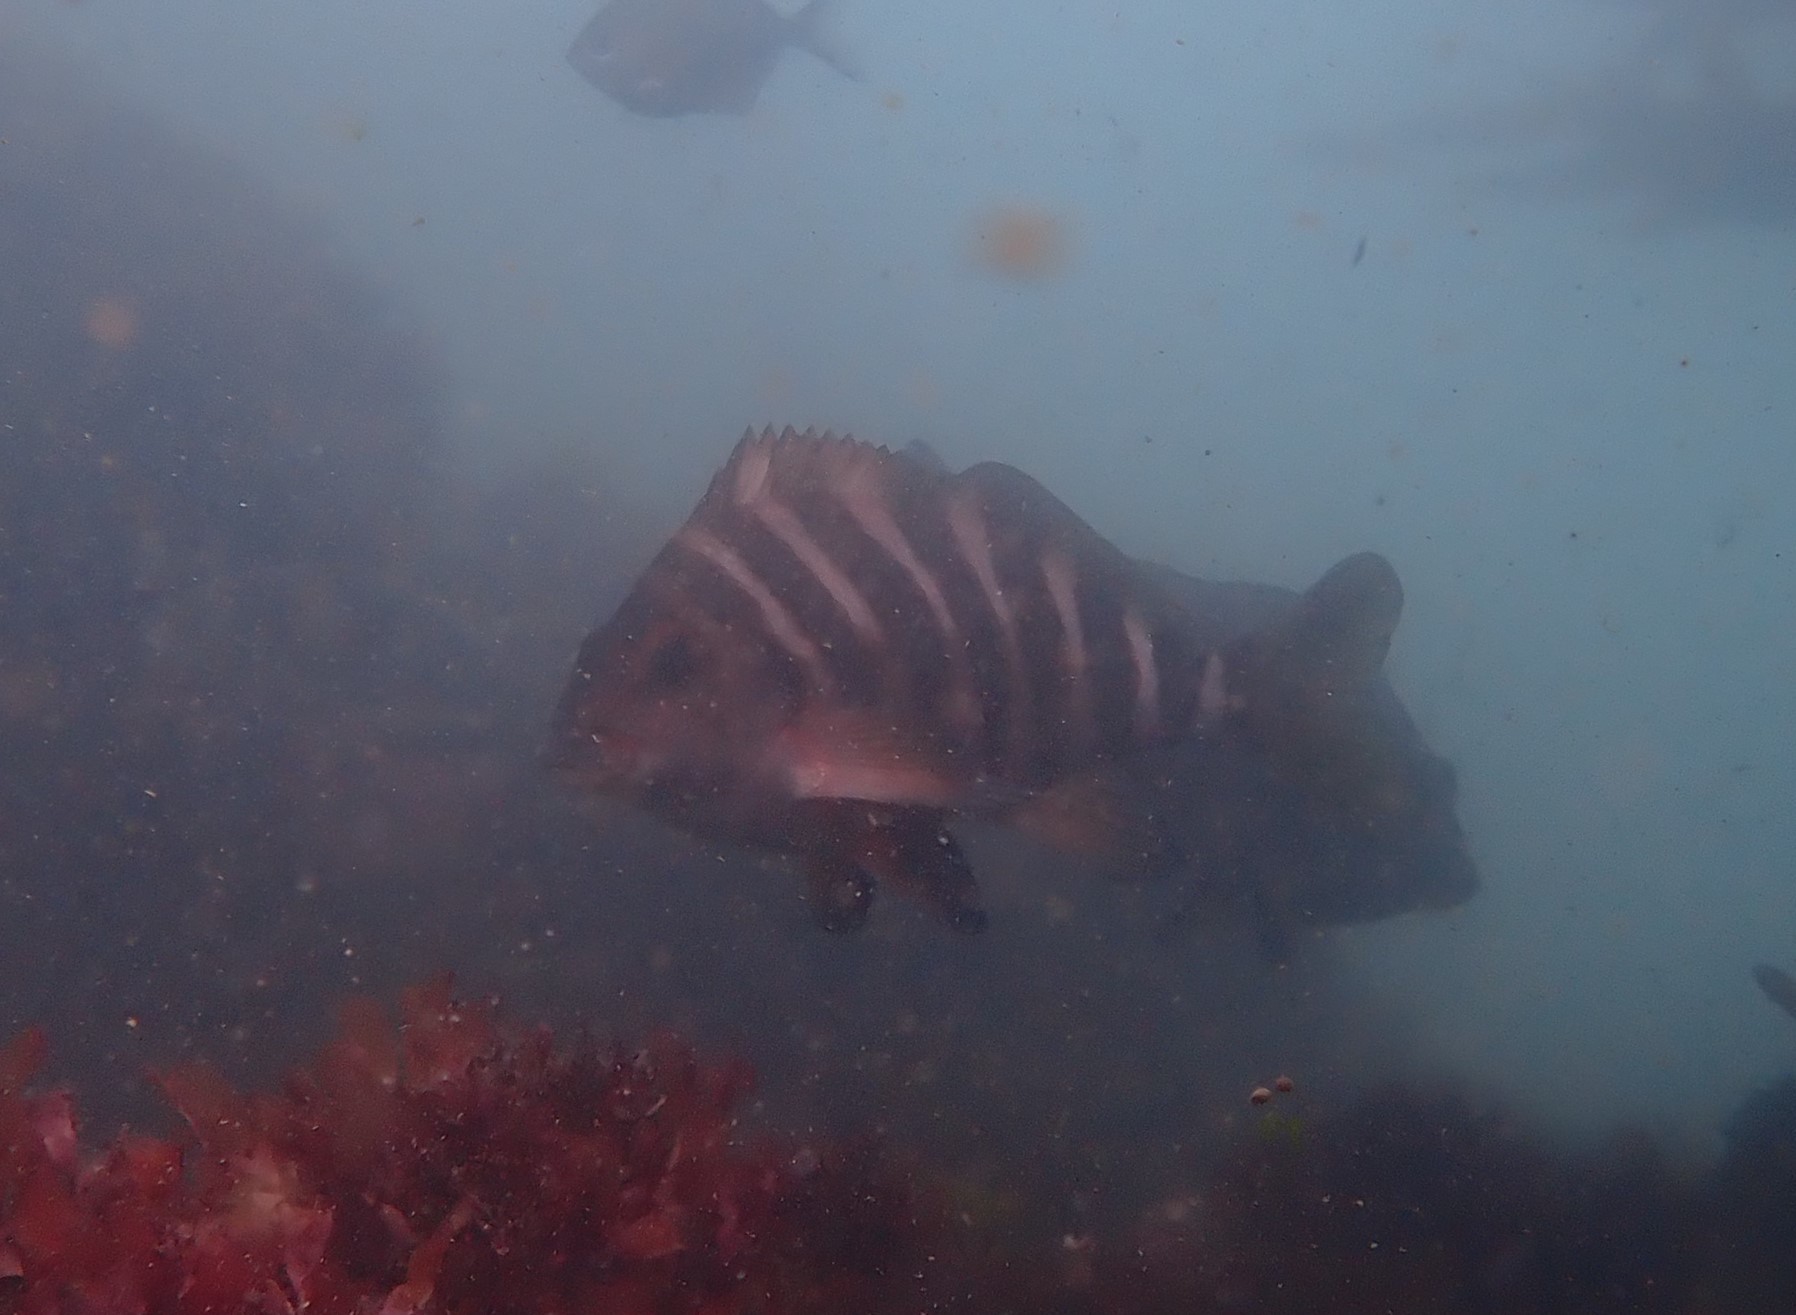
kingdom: Animalia
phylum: Chordata
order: Perciformes
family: Cheilodactylidae
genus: Cheilodactylus
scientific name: Cheilodactylus spectabilis
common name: Red moki
